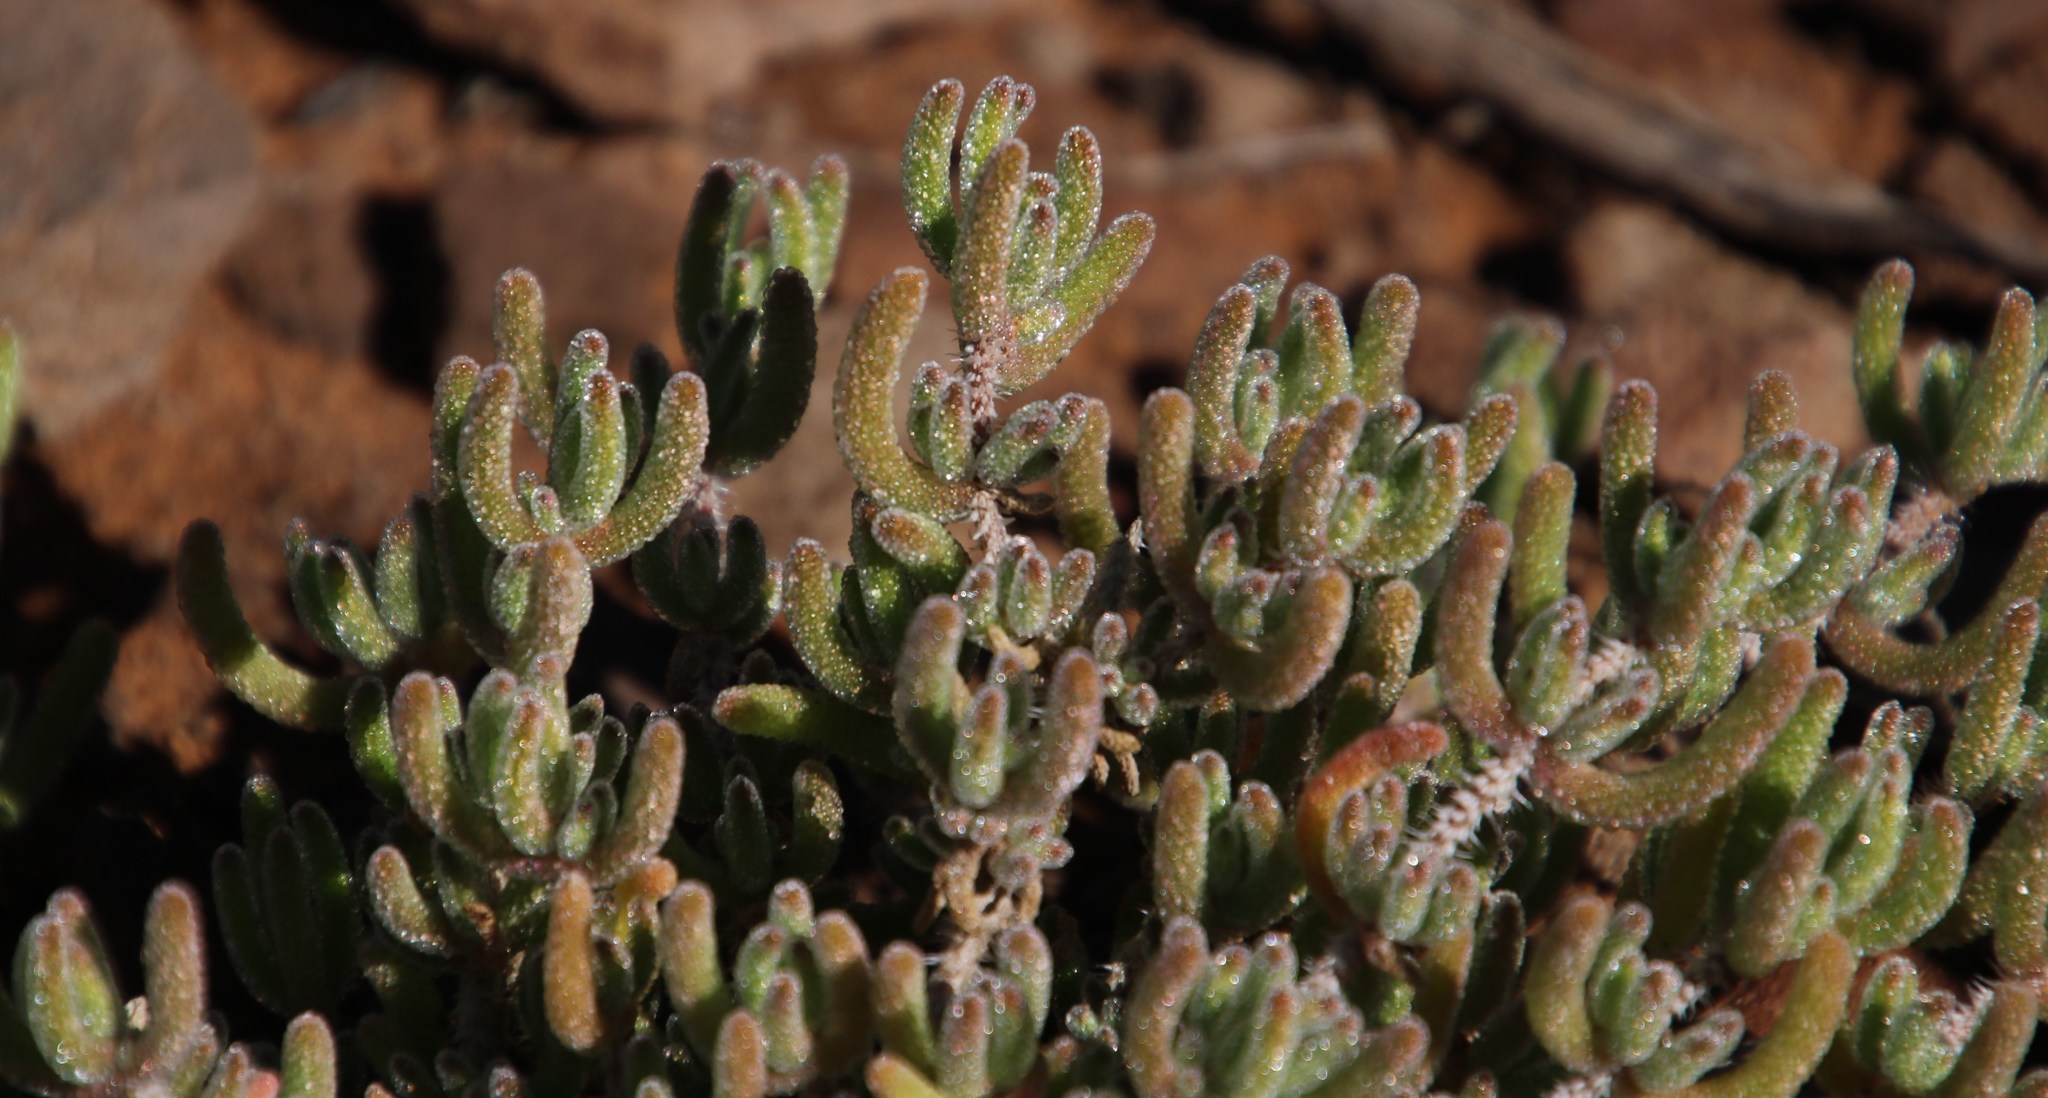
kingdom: Plantae
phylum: Tracheophyta
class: Magnoliopsida
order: Caryophyllales
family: Aizoaceae
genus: Drosanthemum
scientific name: Drosanthemum hispidum
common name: Hairy dewflower
